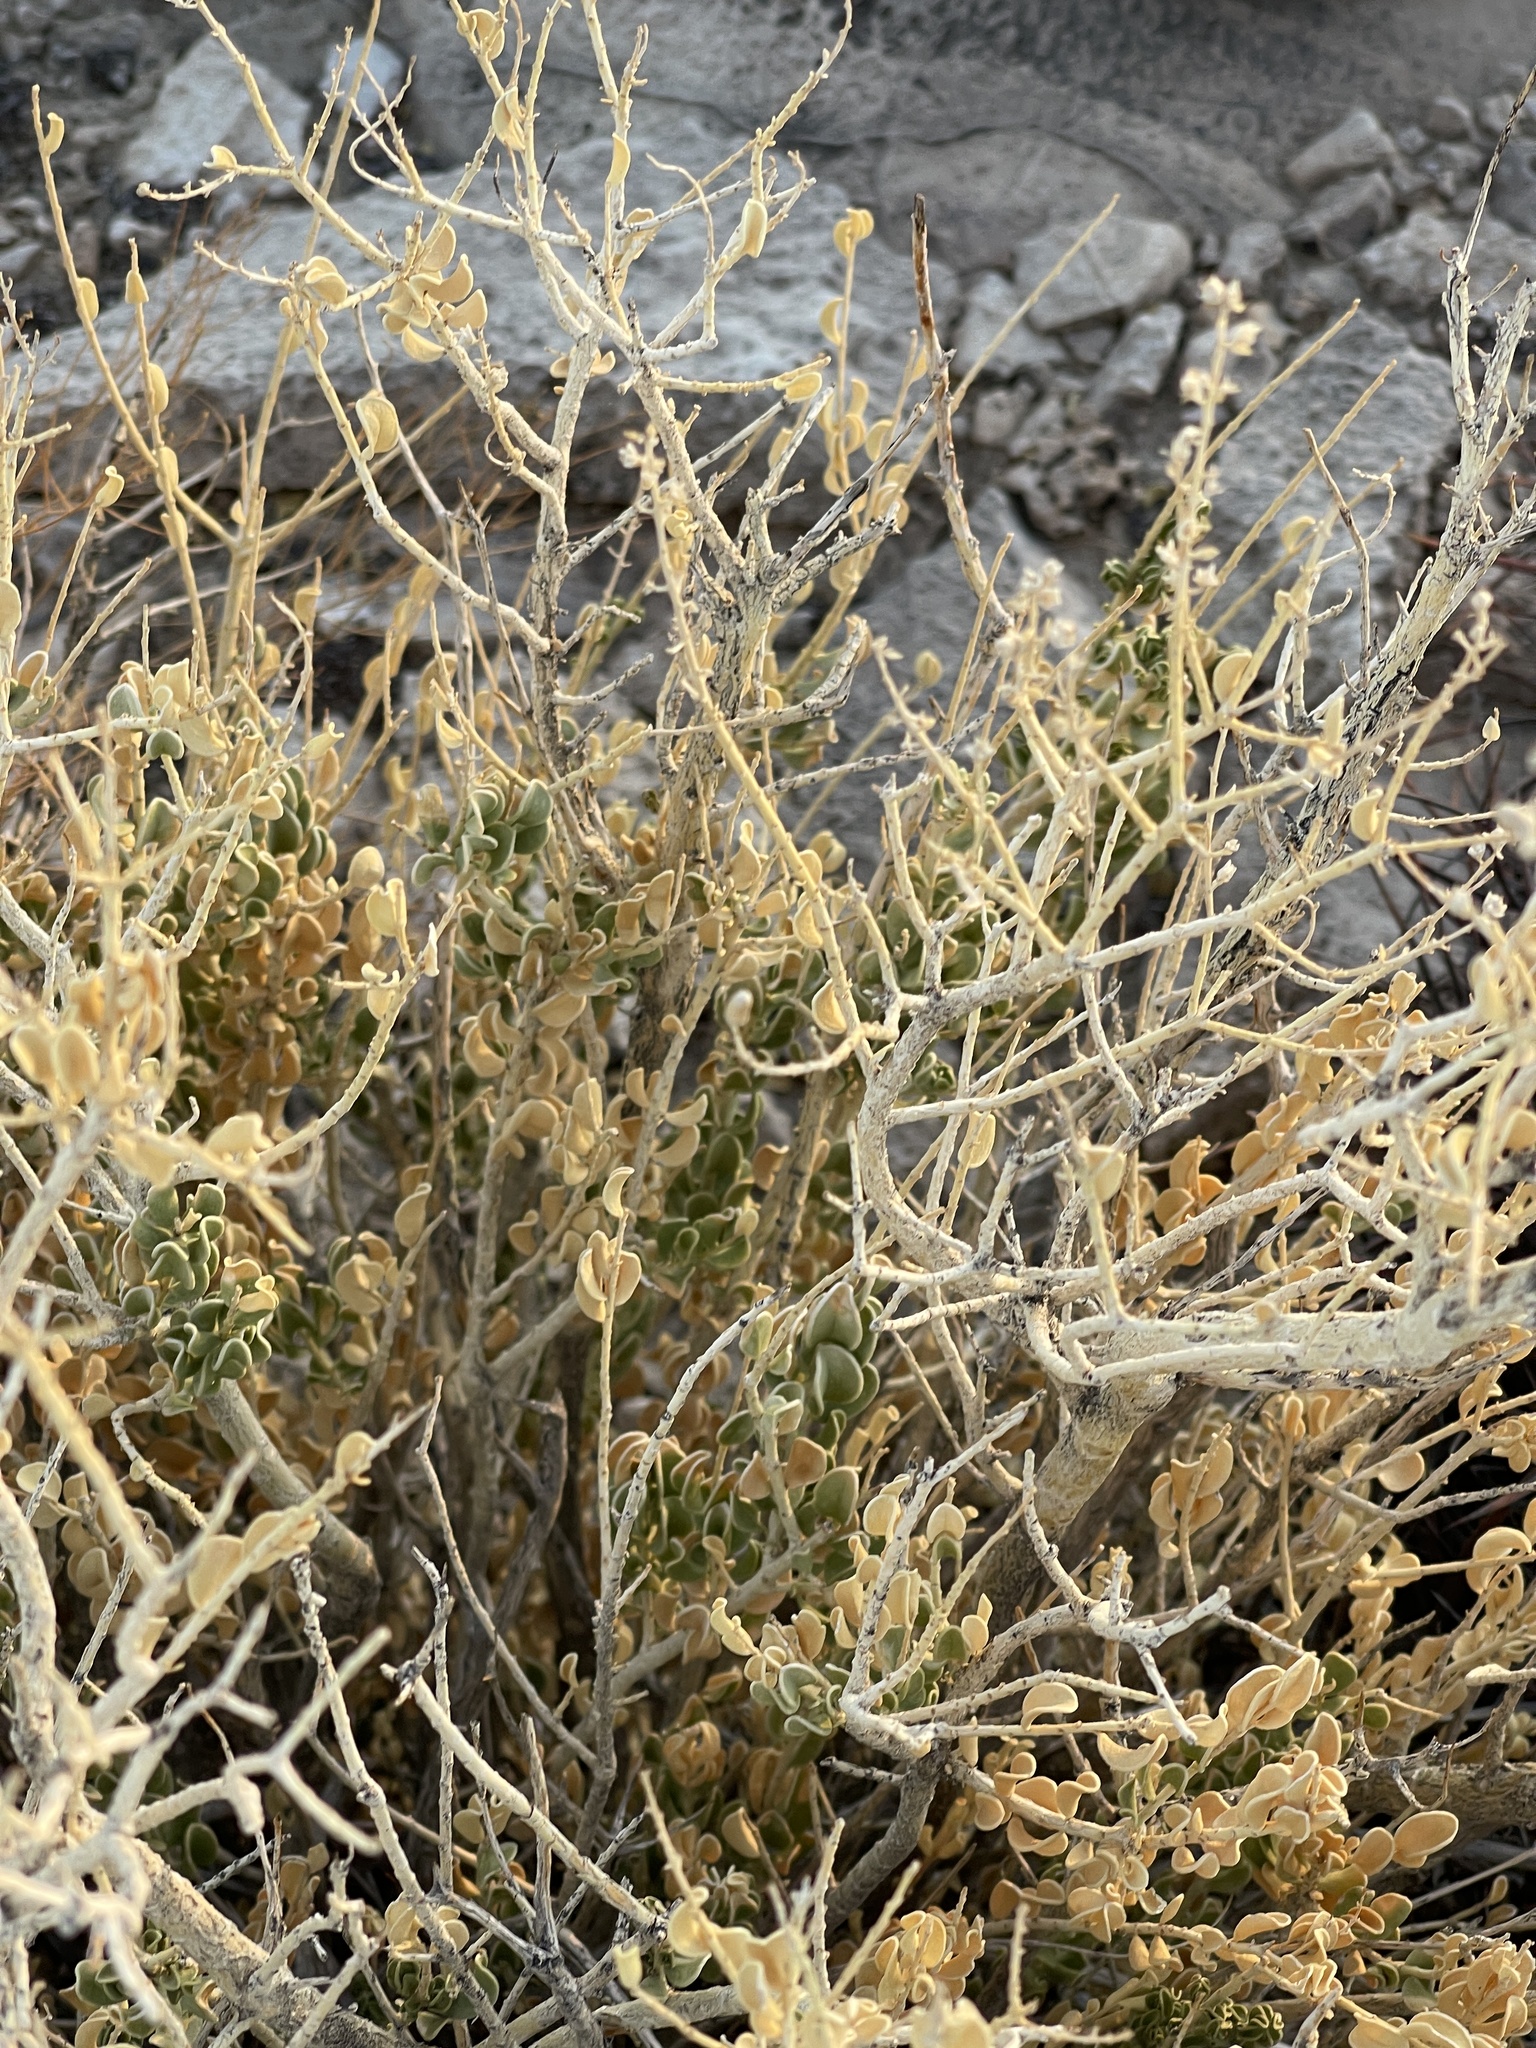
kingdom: Plantae
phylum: Tracheophyta
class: Magnoliopsida
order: Celastrales
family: Celastraceae
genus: Mortonia
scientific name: Mortonia utahensis
